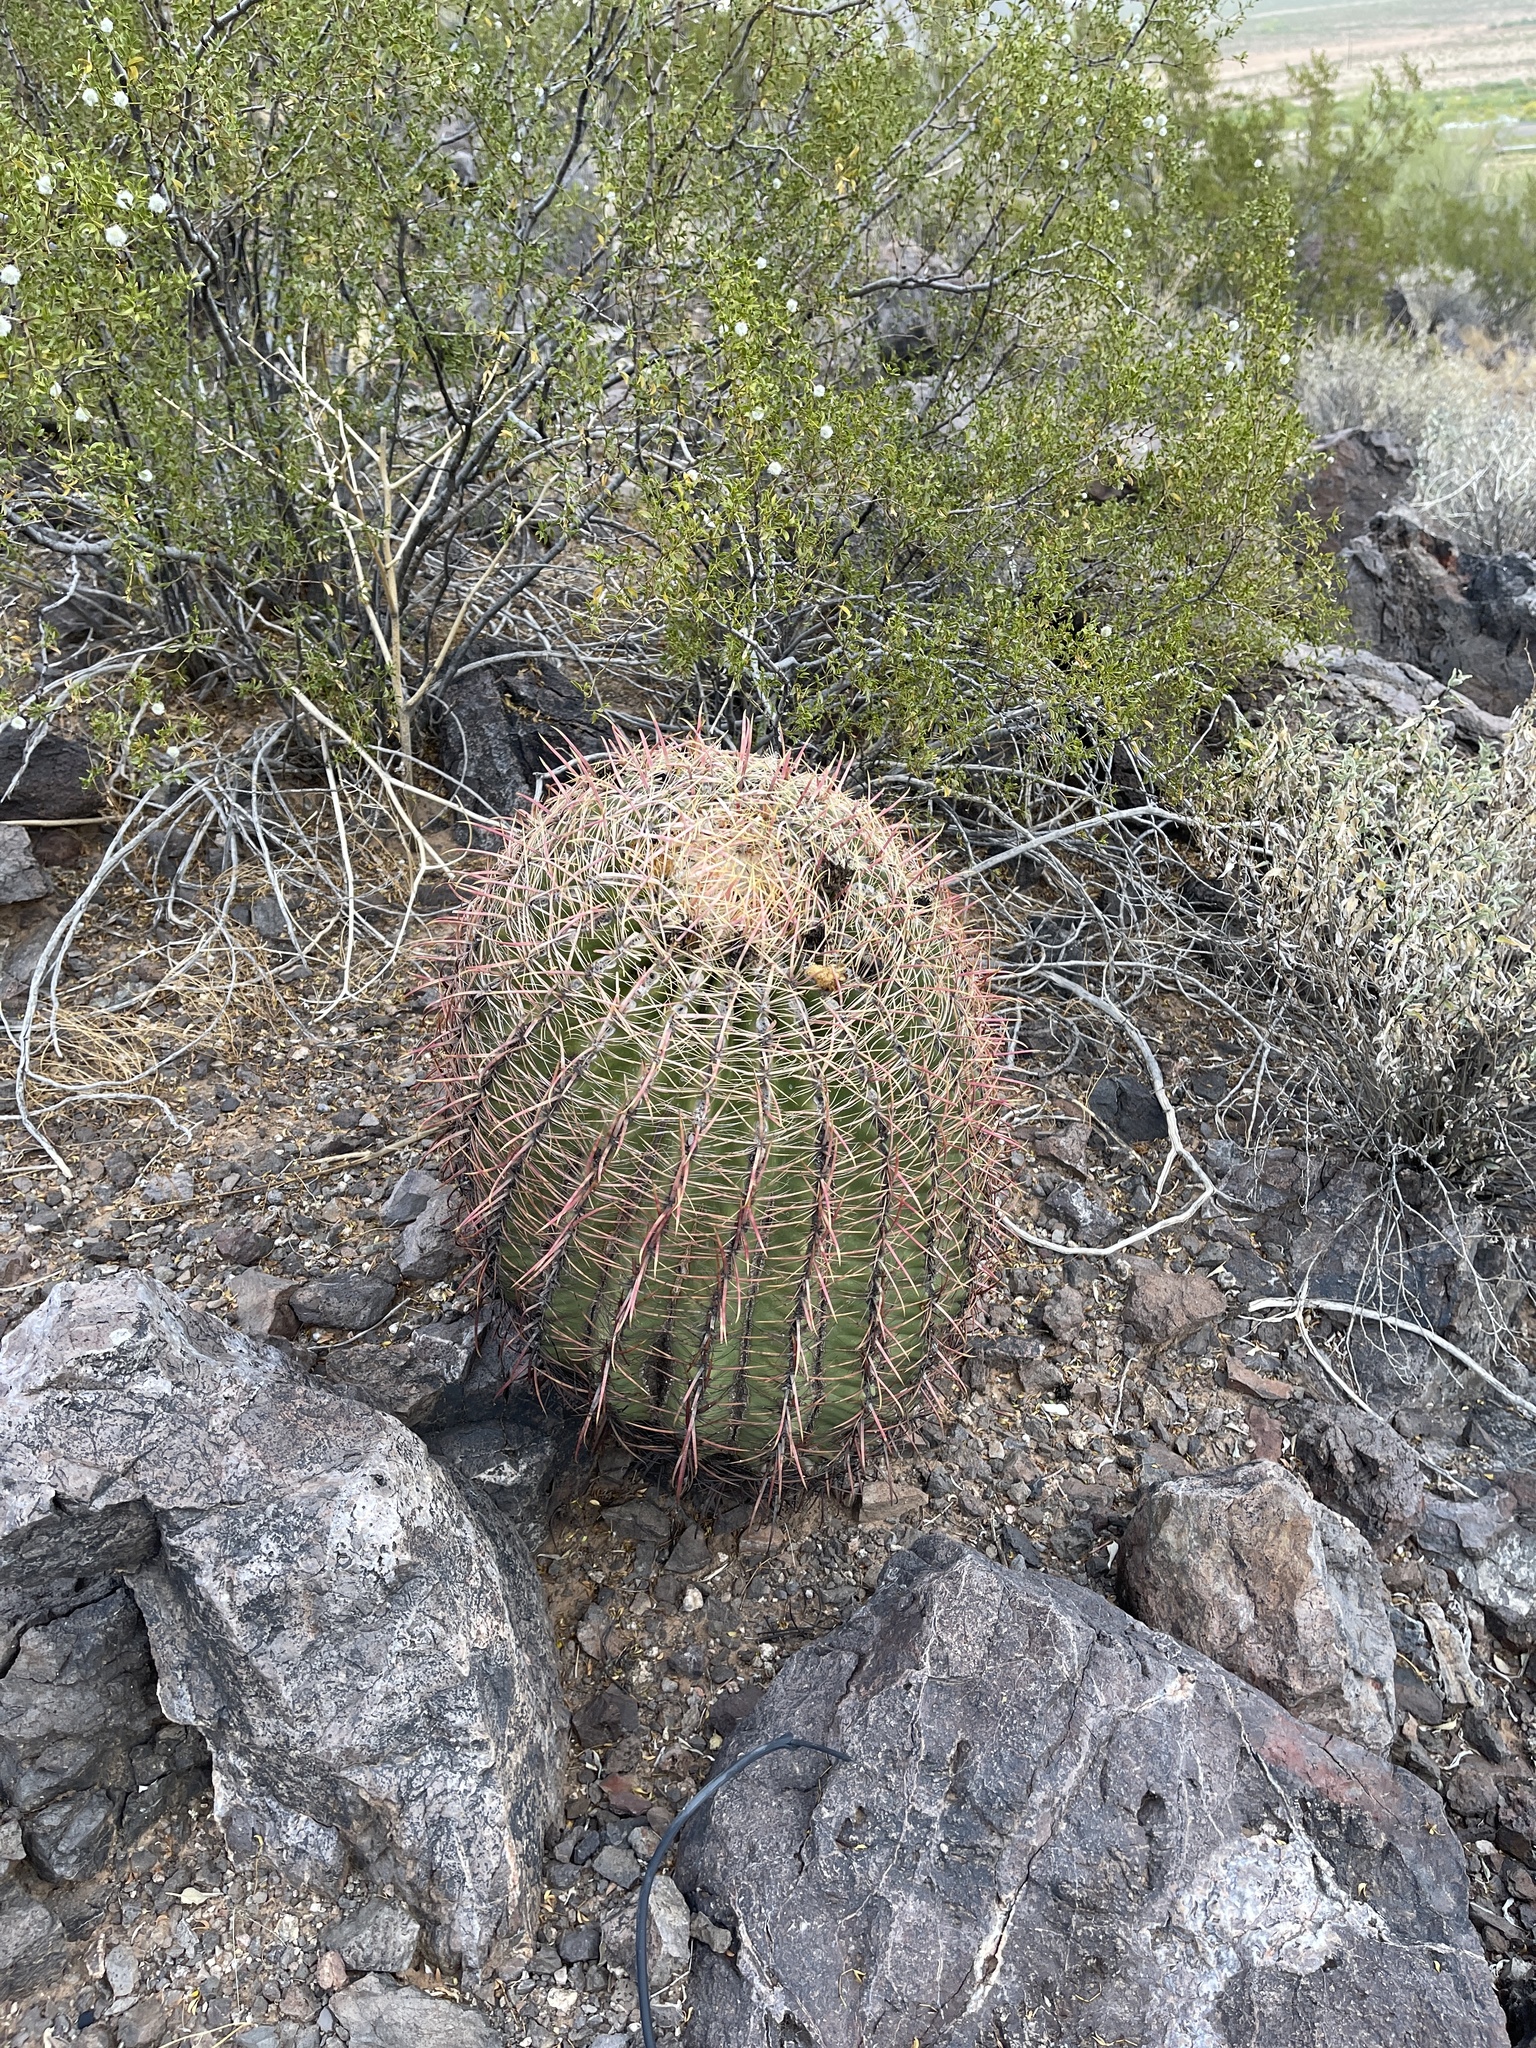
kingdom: Plantae
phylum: Tracheophyta
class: Magnoliopsida
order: Caryophyllales
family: Cactaceae
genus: Ferocactus
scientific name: Ferocactus cylindraceus
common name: California barrel cactus
